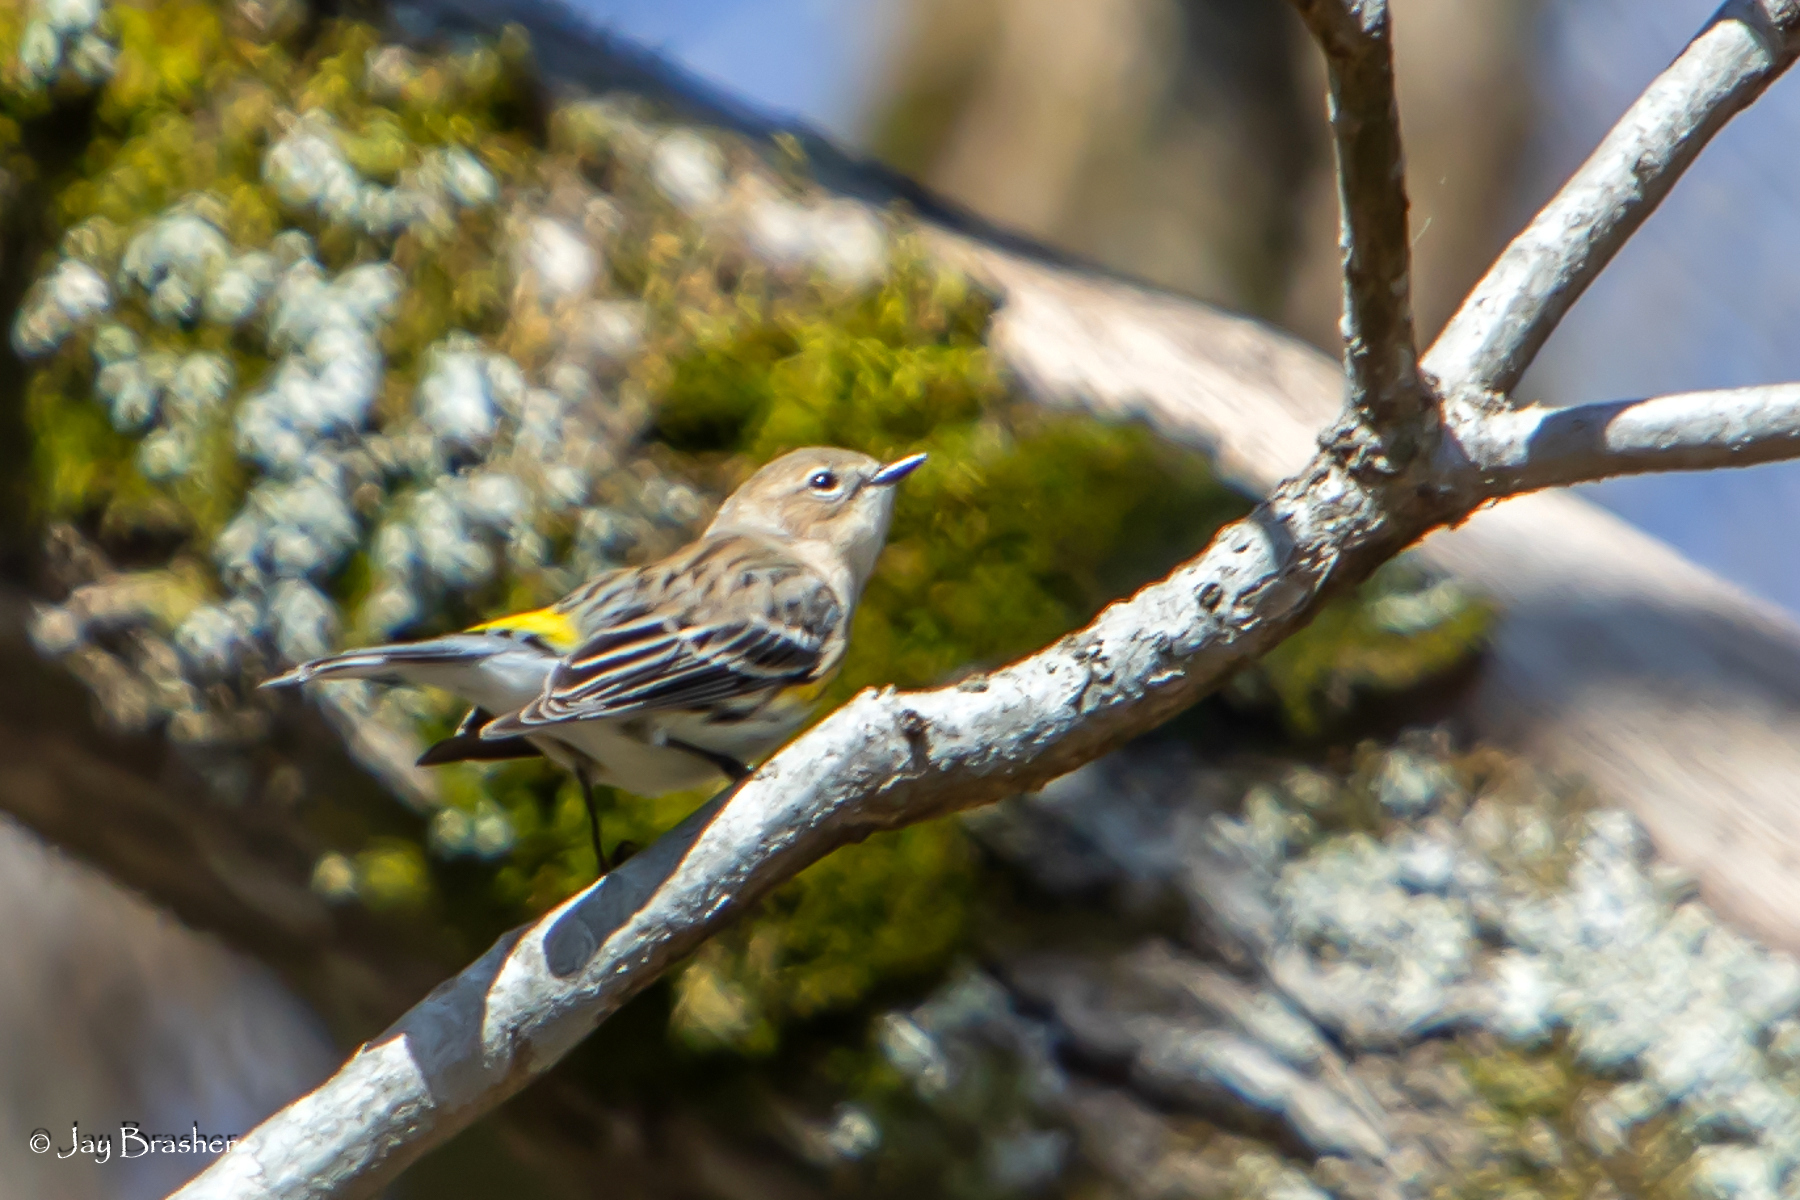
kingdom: Animalia
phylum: Chordata
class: Aves
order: Passeriformes
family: Parulidae
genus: Setophaga
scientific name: Setophaga coronata
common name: Myrtle warbler
